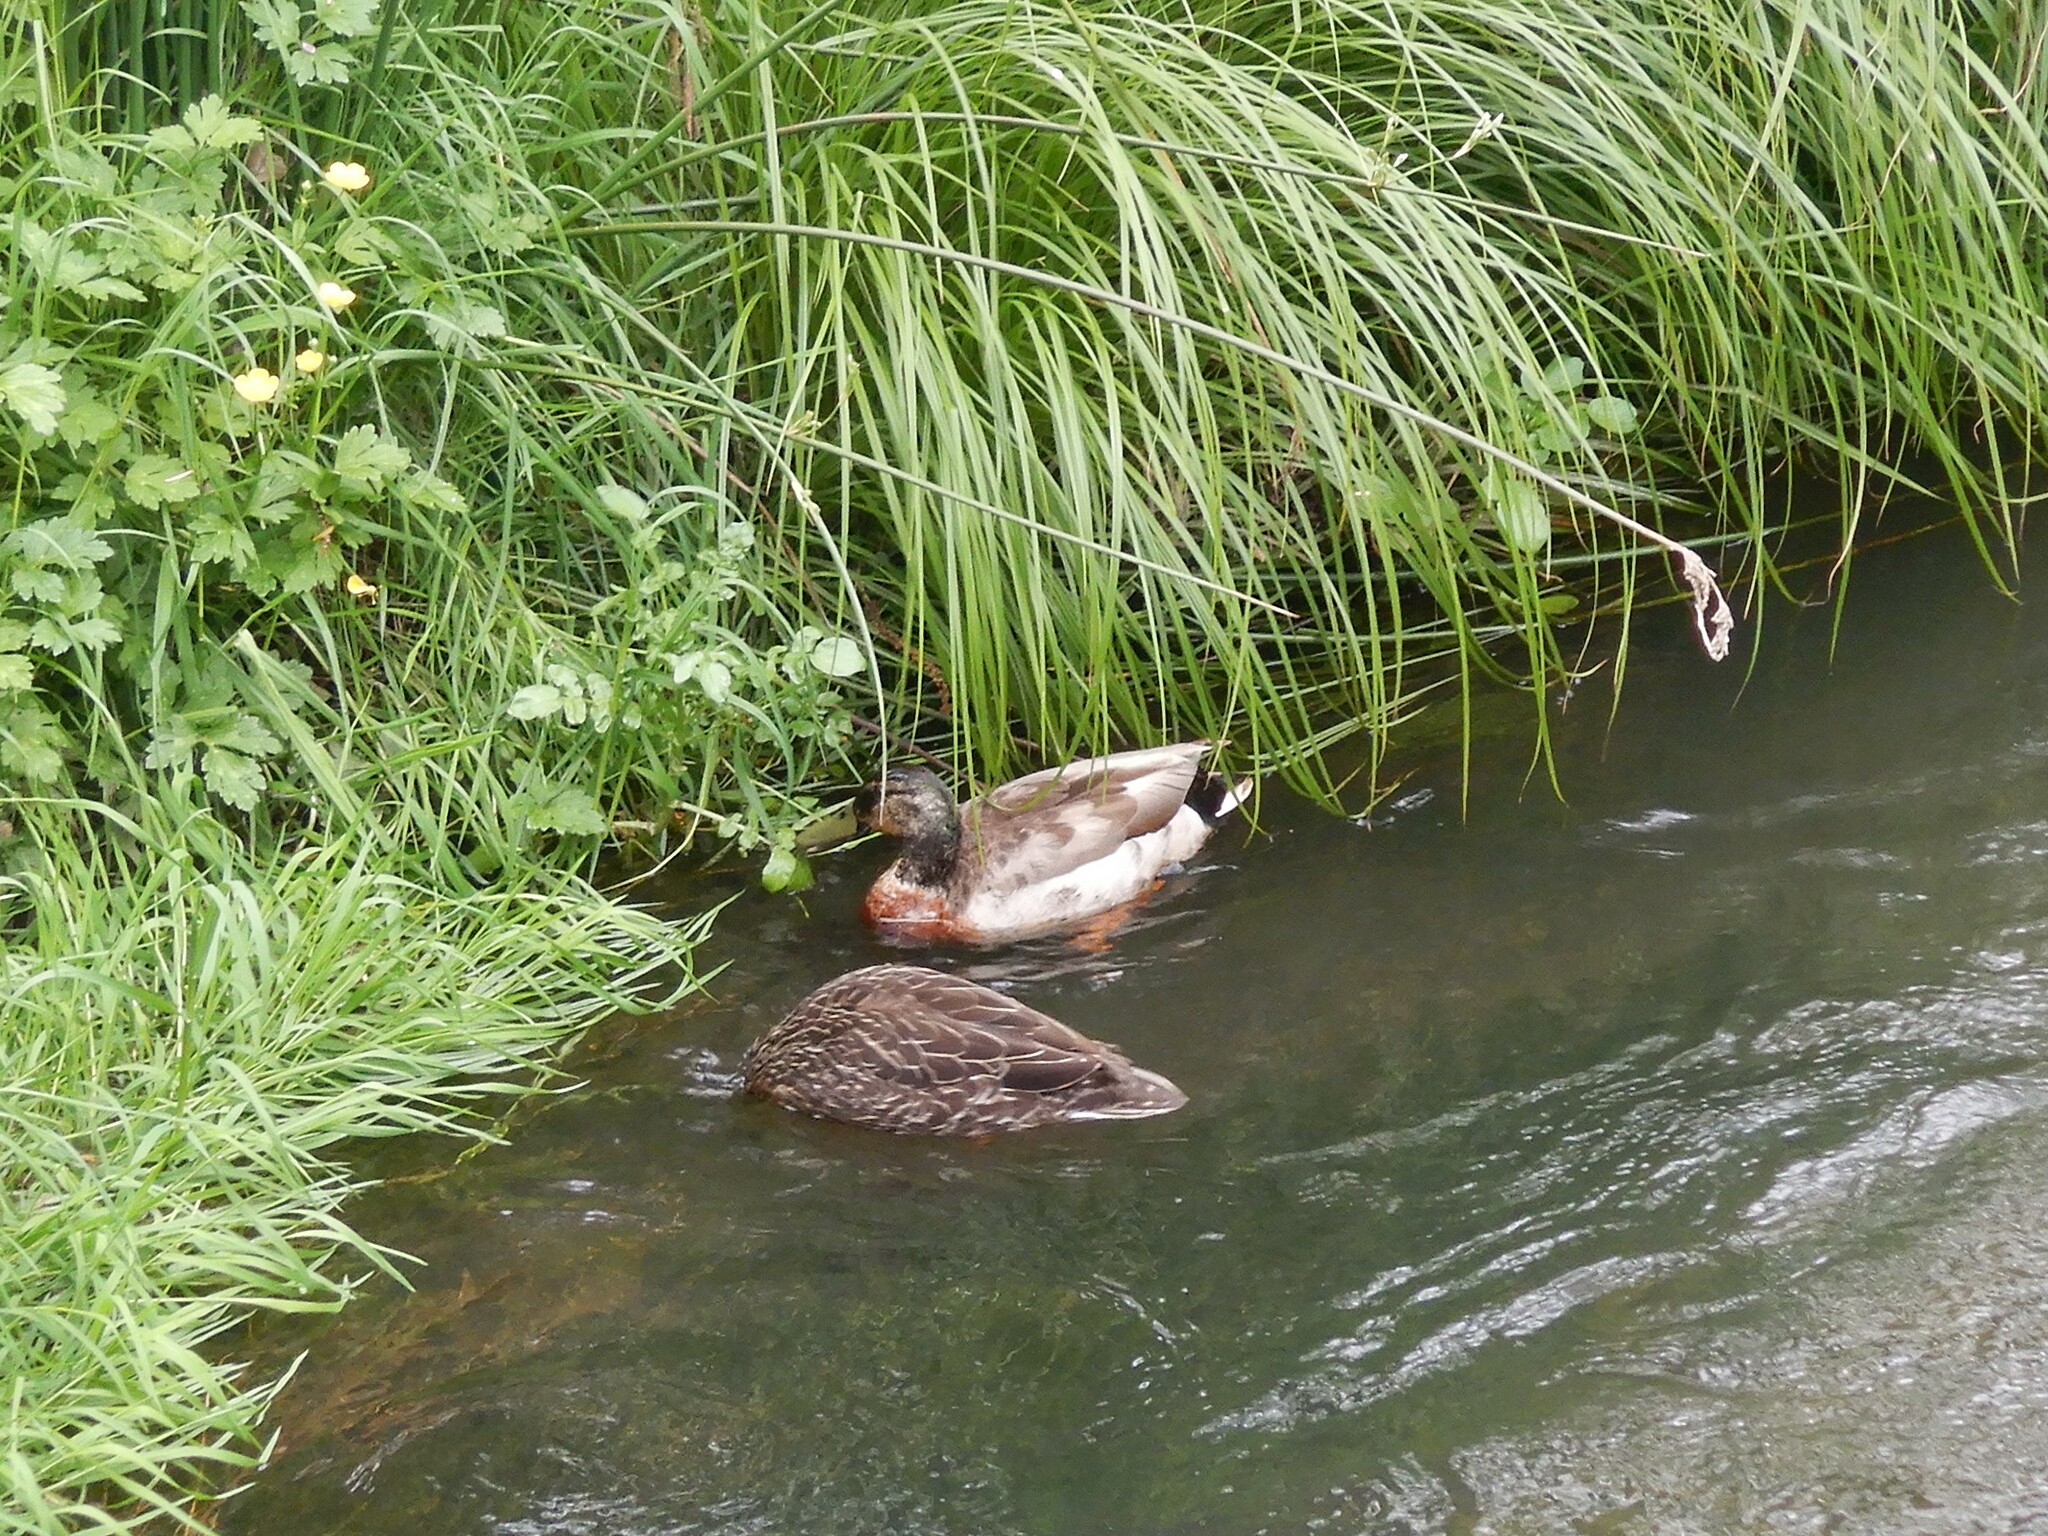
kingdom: Animalia
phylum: Chordata
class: Aves
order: Anseriformes
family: Anatidae
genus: Anas
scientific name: Anas
